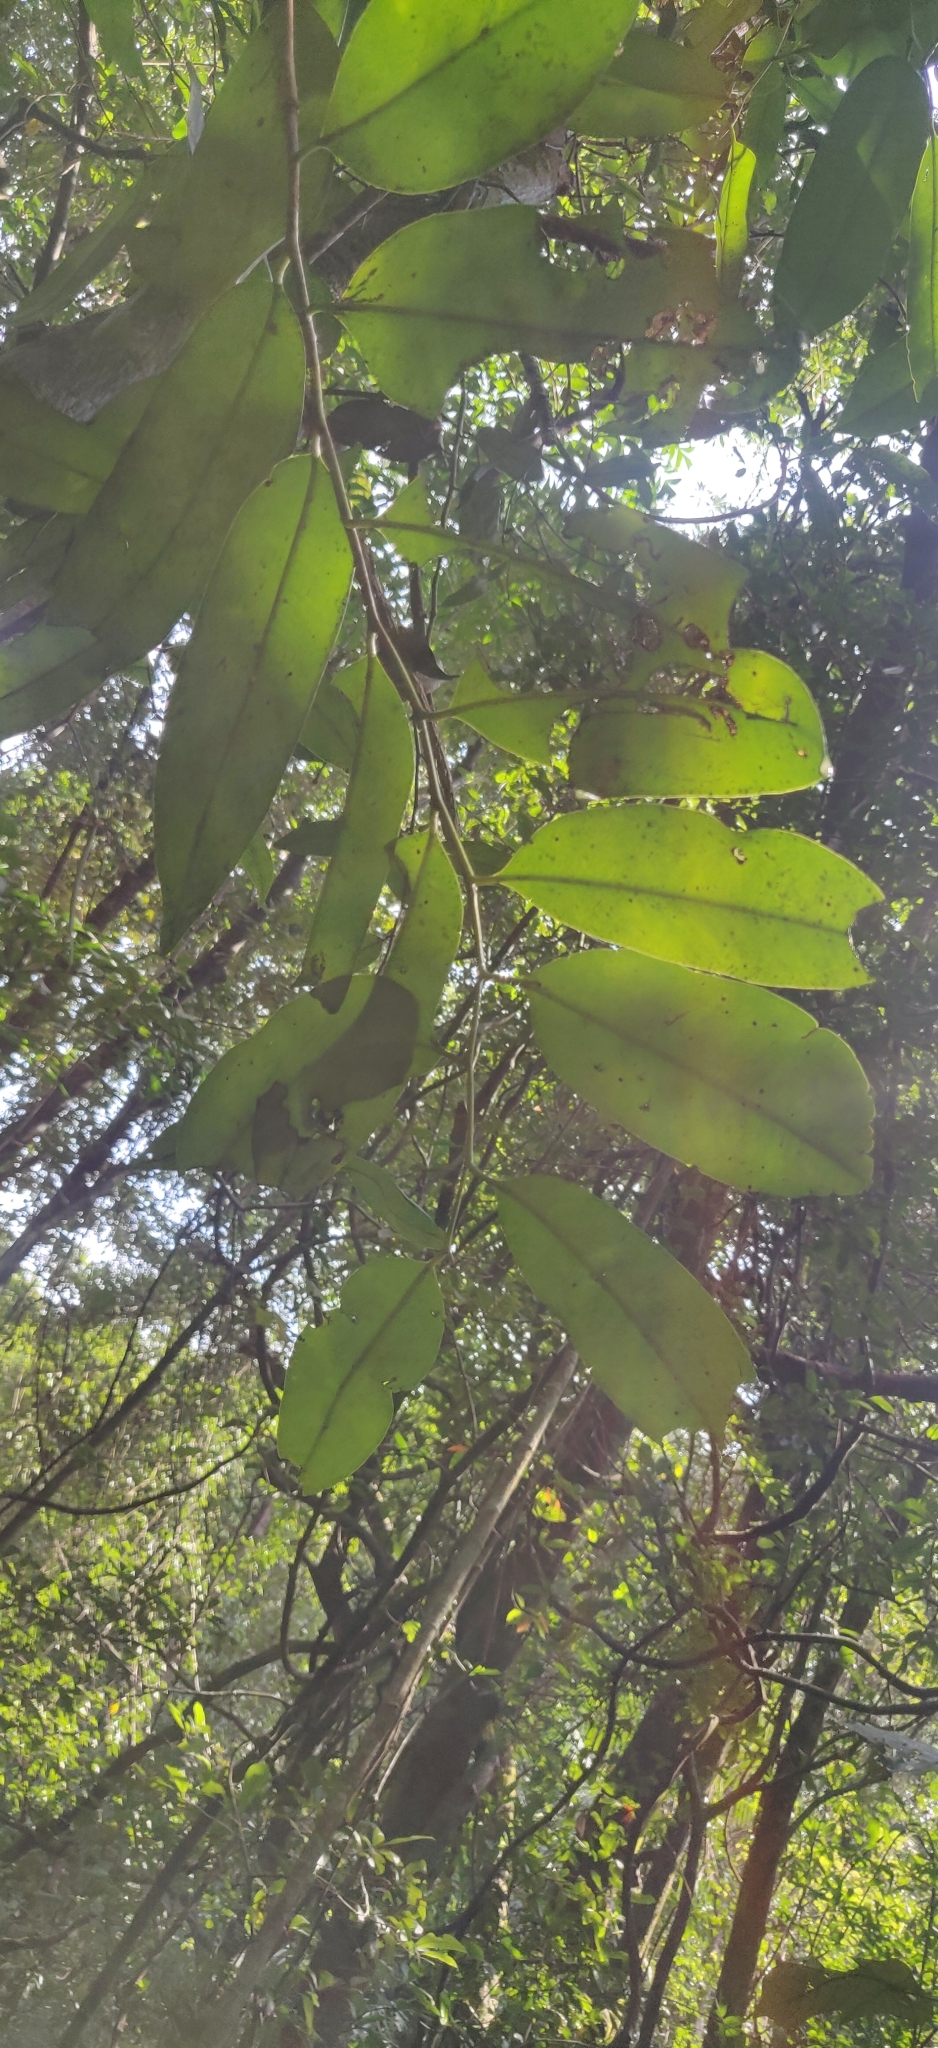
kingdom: Plantae
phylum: Tracheophyta
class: Magnoliopsida
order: Ericales
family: Ebenaceae
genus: Diospyros
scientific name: Diospyros candolleana
